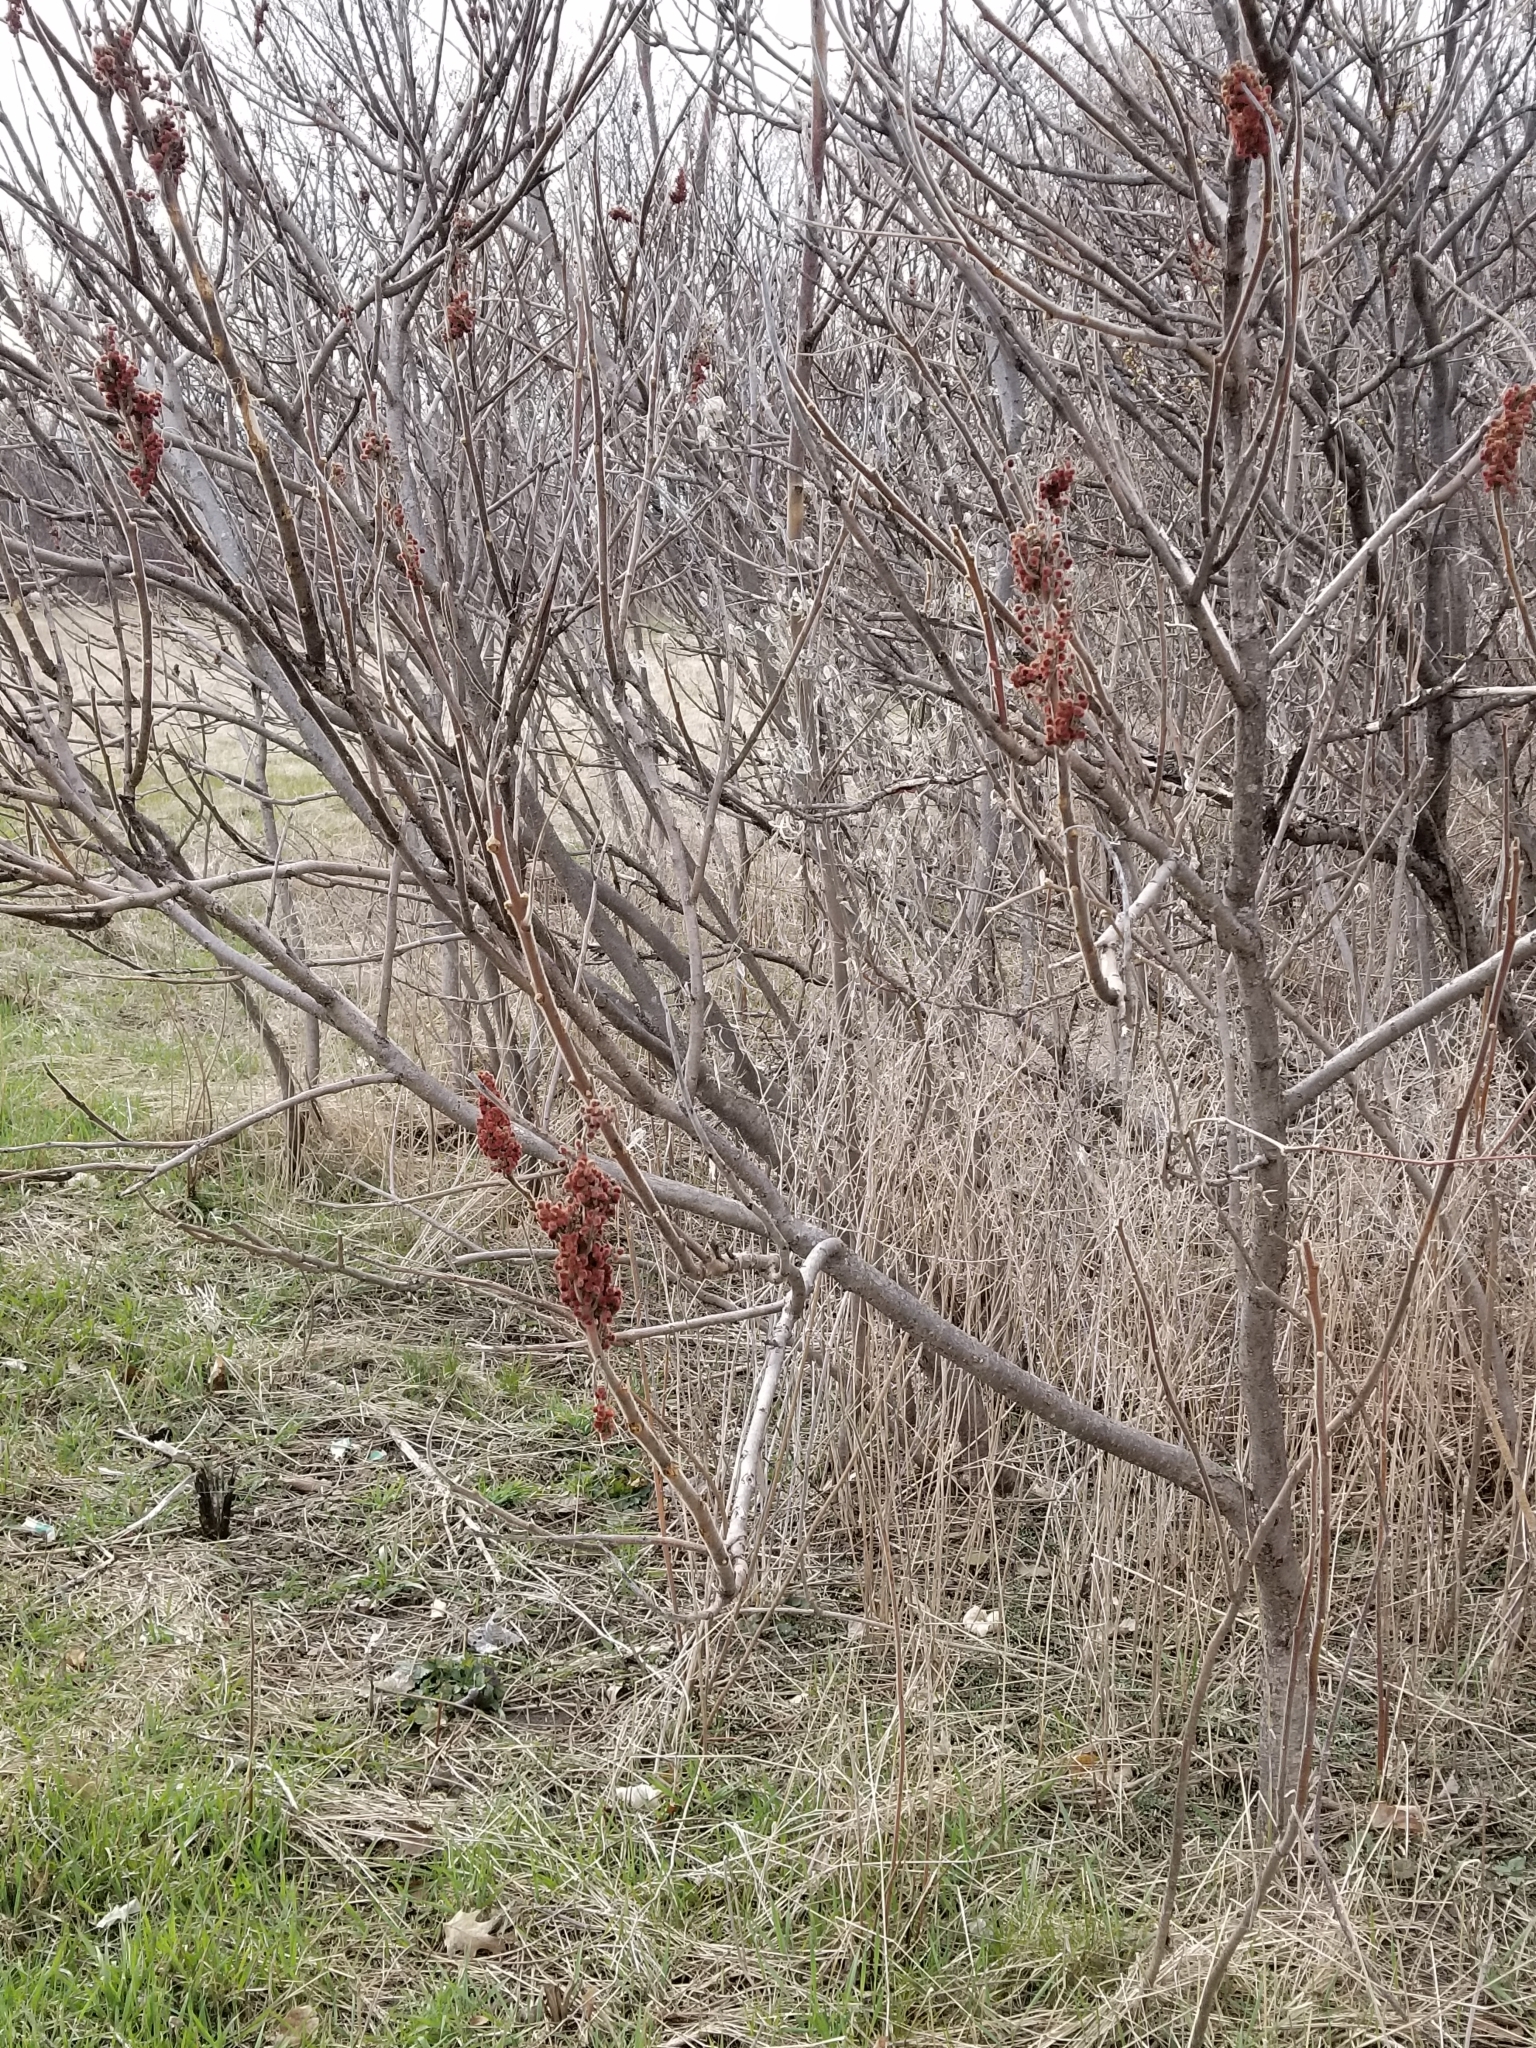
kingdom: Plantae
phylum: Tracheophyta
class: Magnoliopsida
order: Sapindales
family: Anacardiaceae
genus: Rhus
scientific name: Rhus typhina
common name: Staghorn sumac
